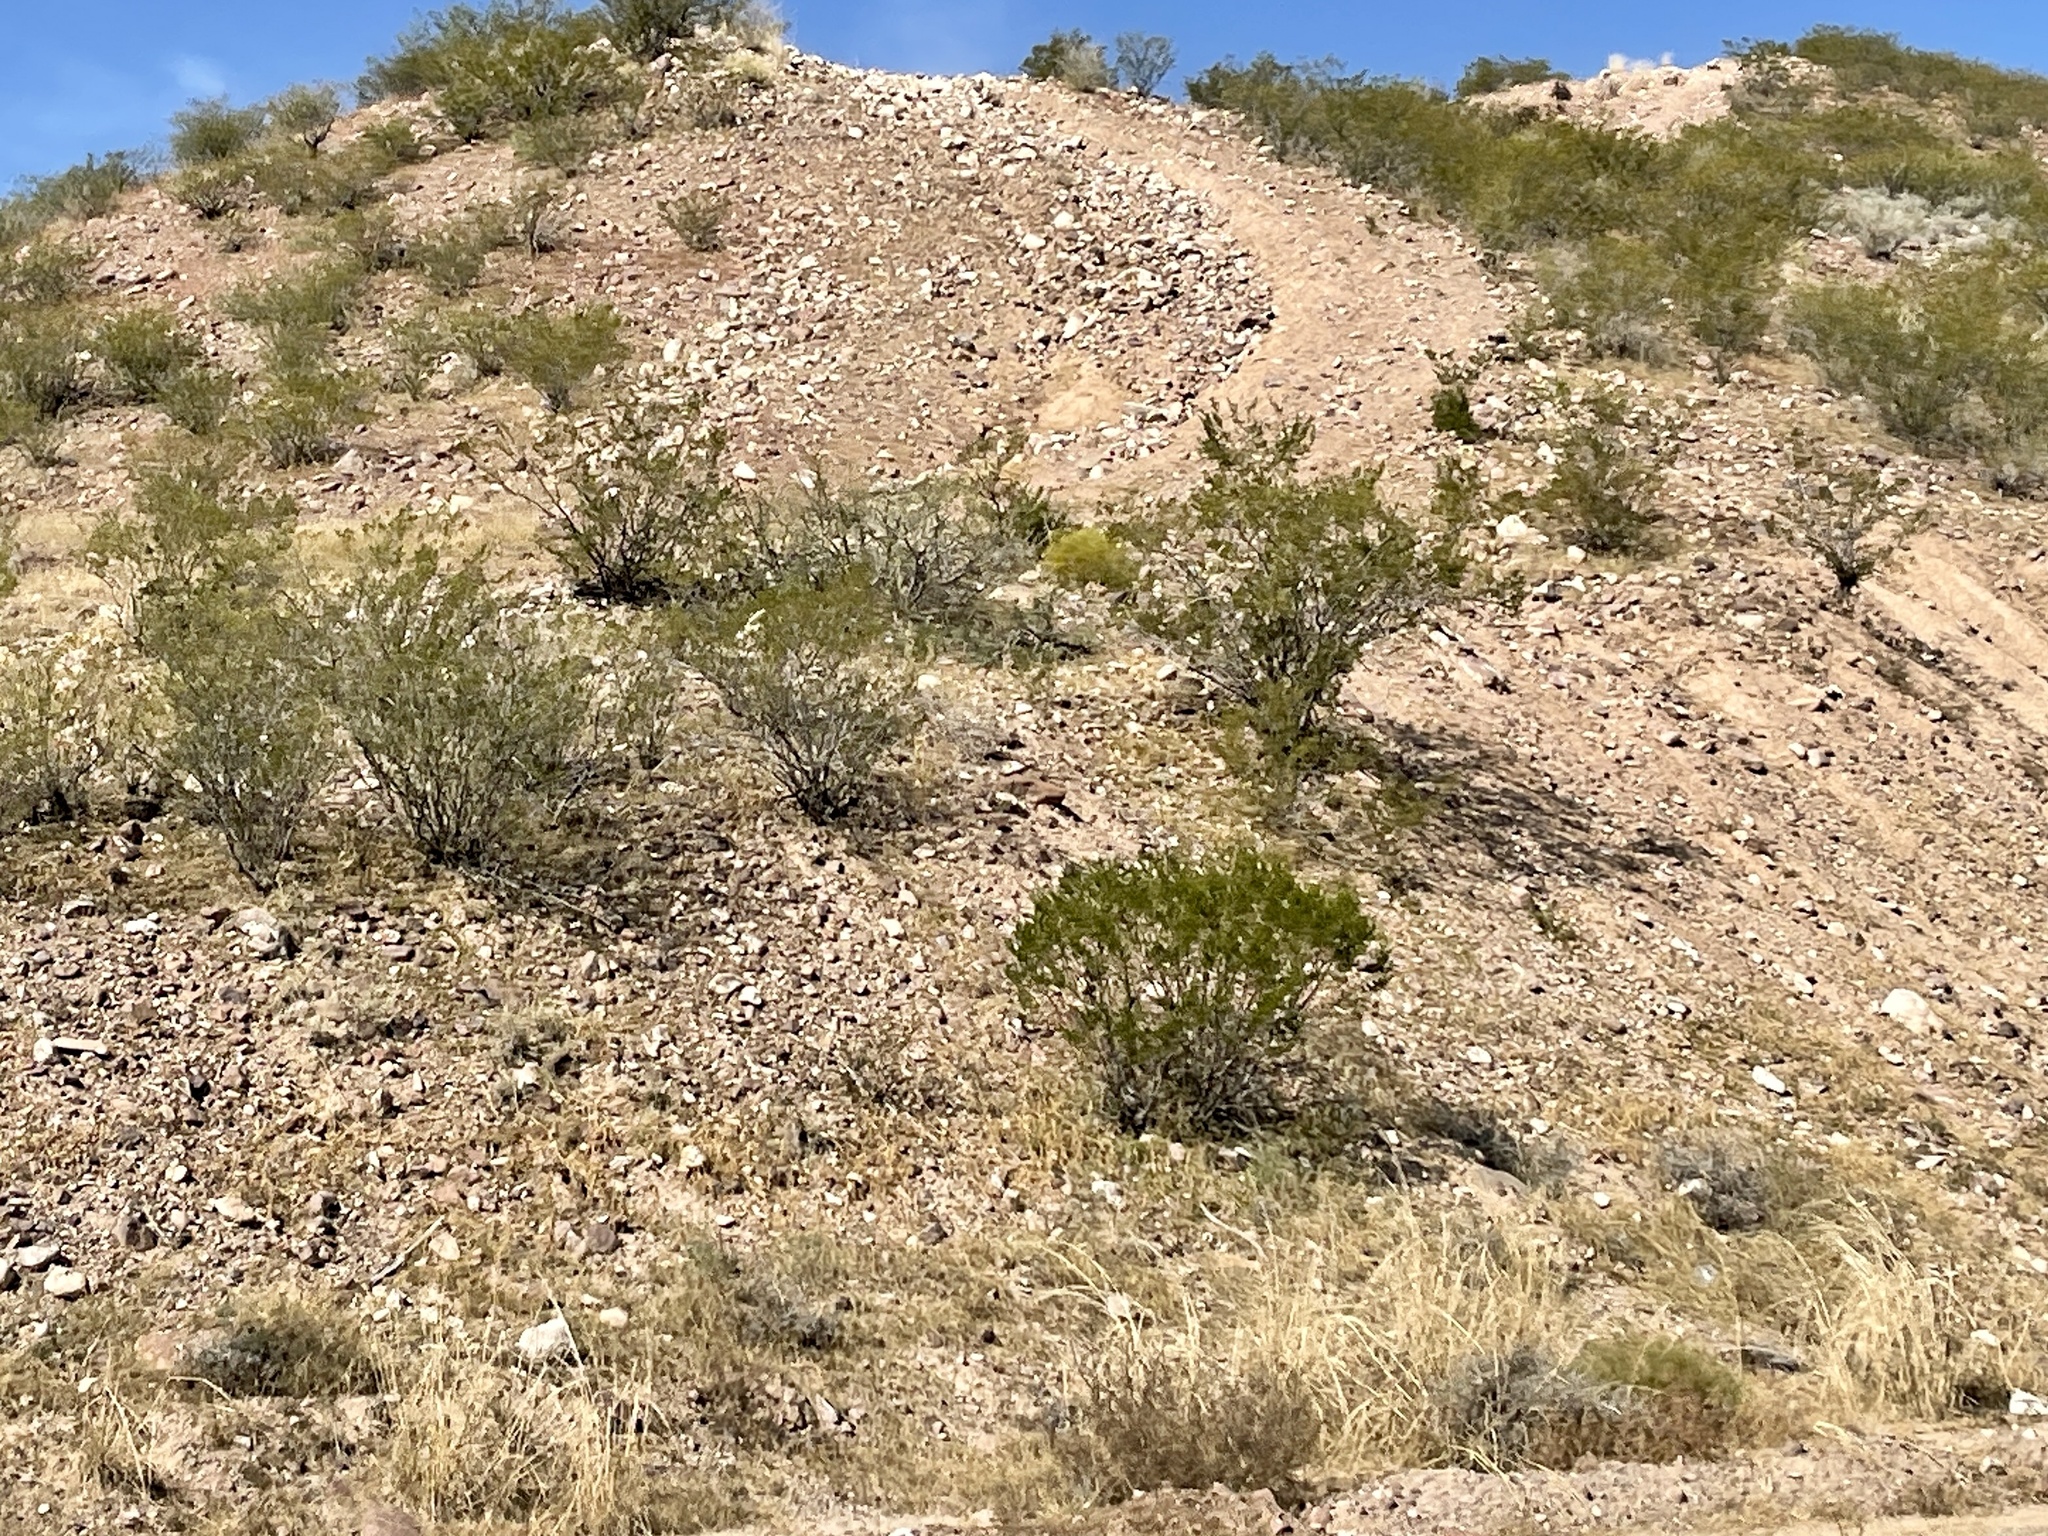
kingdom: Plantae
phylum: Tracheophyta
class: Magnoliopsida
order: Zygophyllales
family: Zygophyllaceae
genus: Larrea
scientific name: Larrea tridentata
